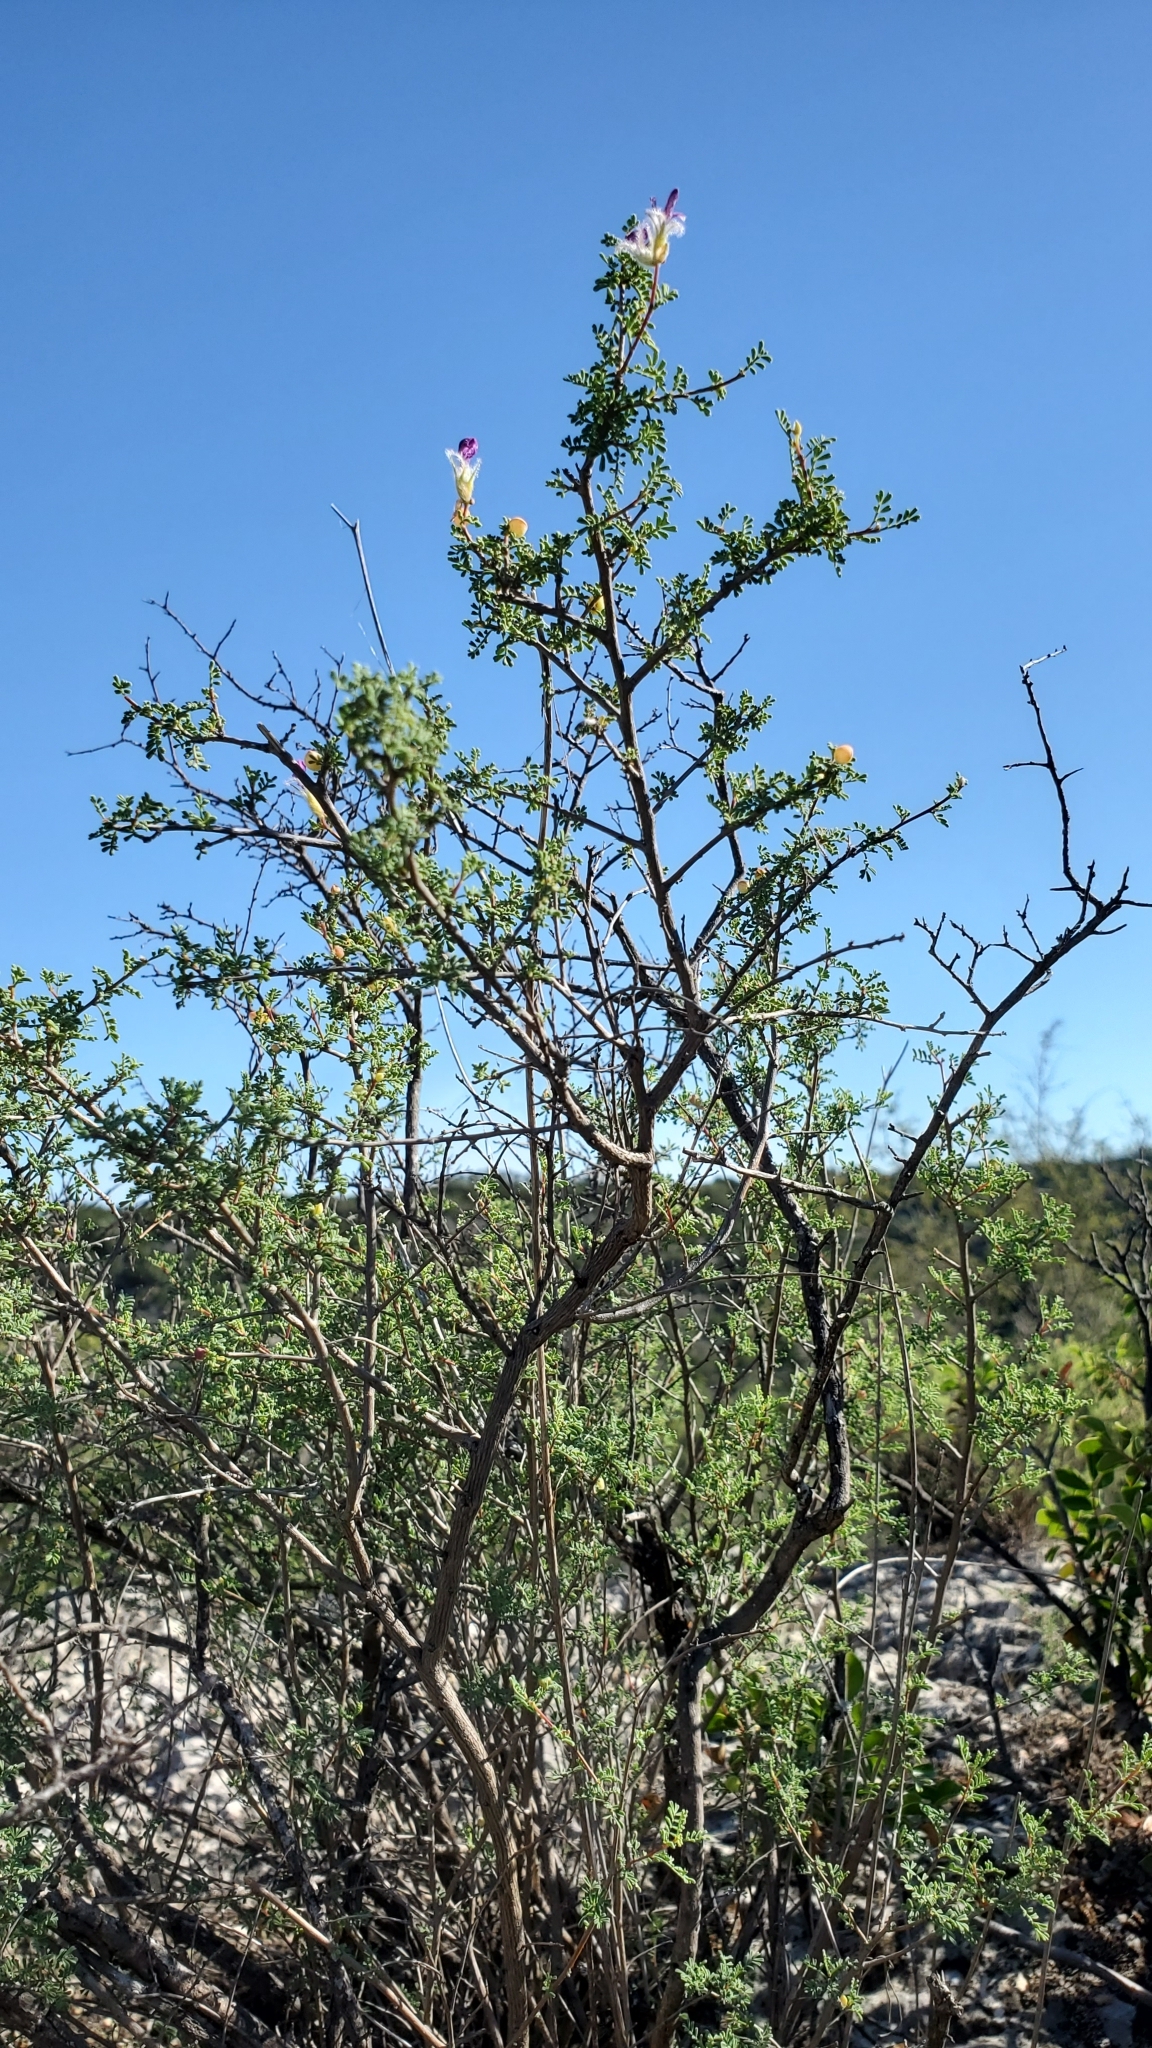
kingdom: Plantae
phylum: Tracheophyta
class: Magnoliopsida
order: Fabales
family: Fabaceae
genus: Dalea
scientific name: Dalea formosa
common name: Feather-plume dalea
